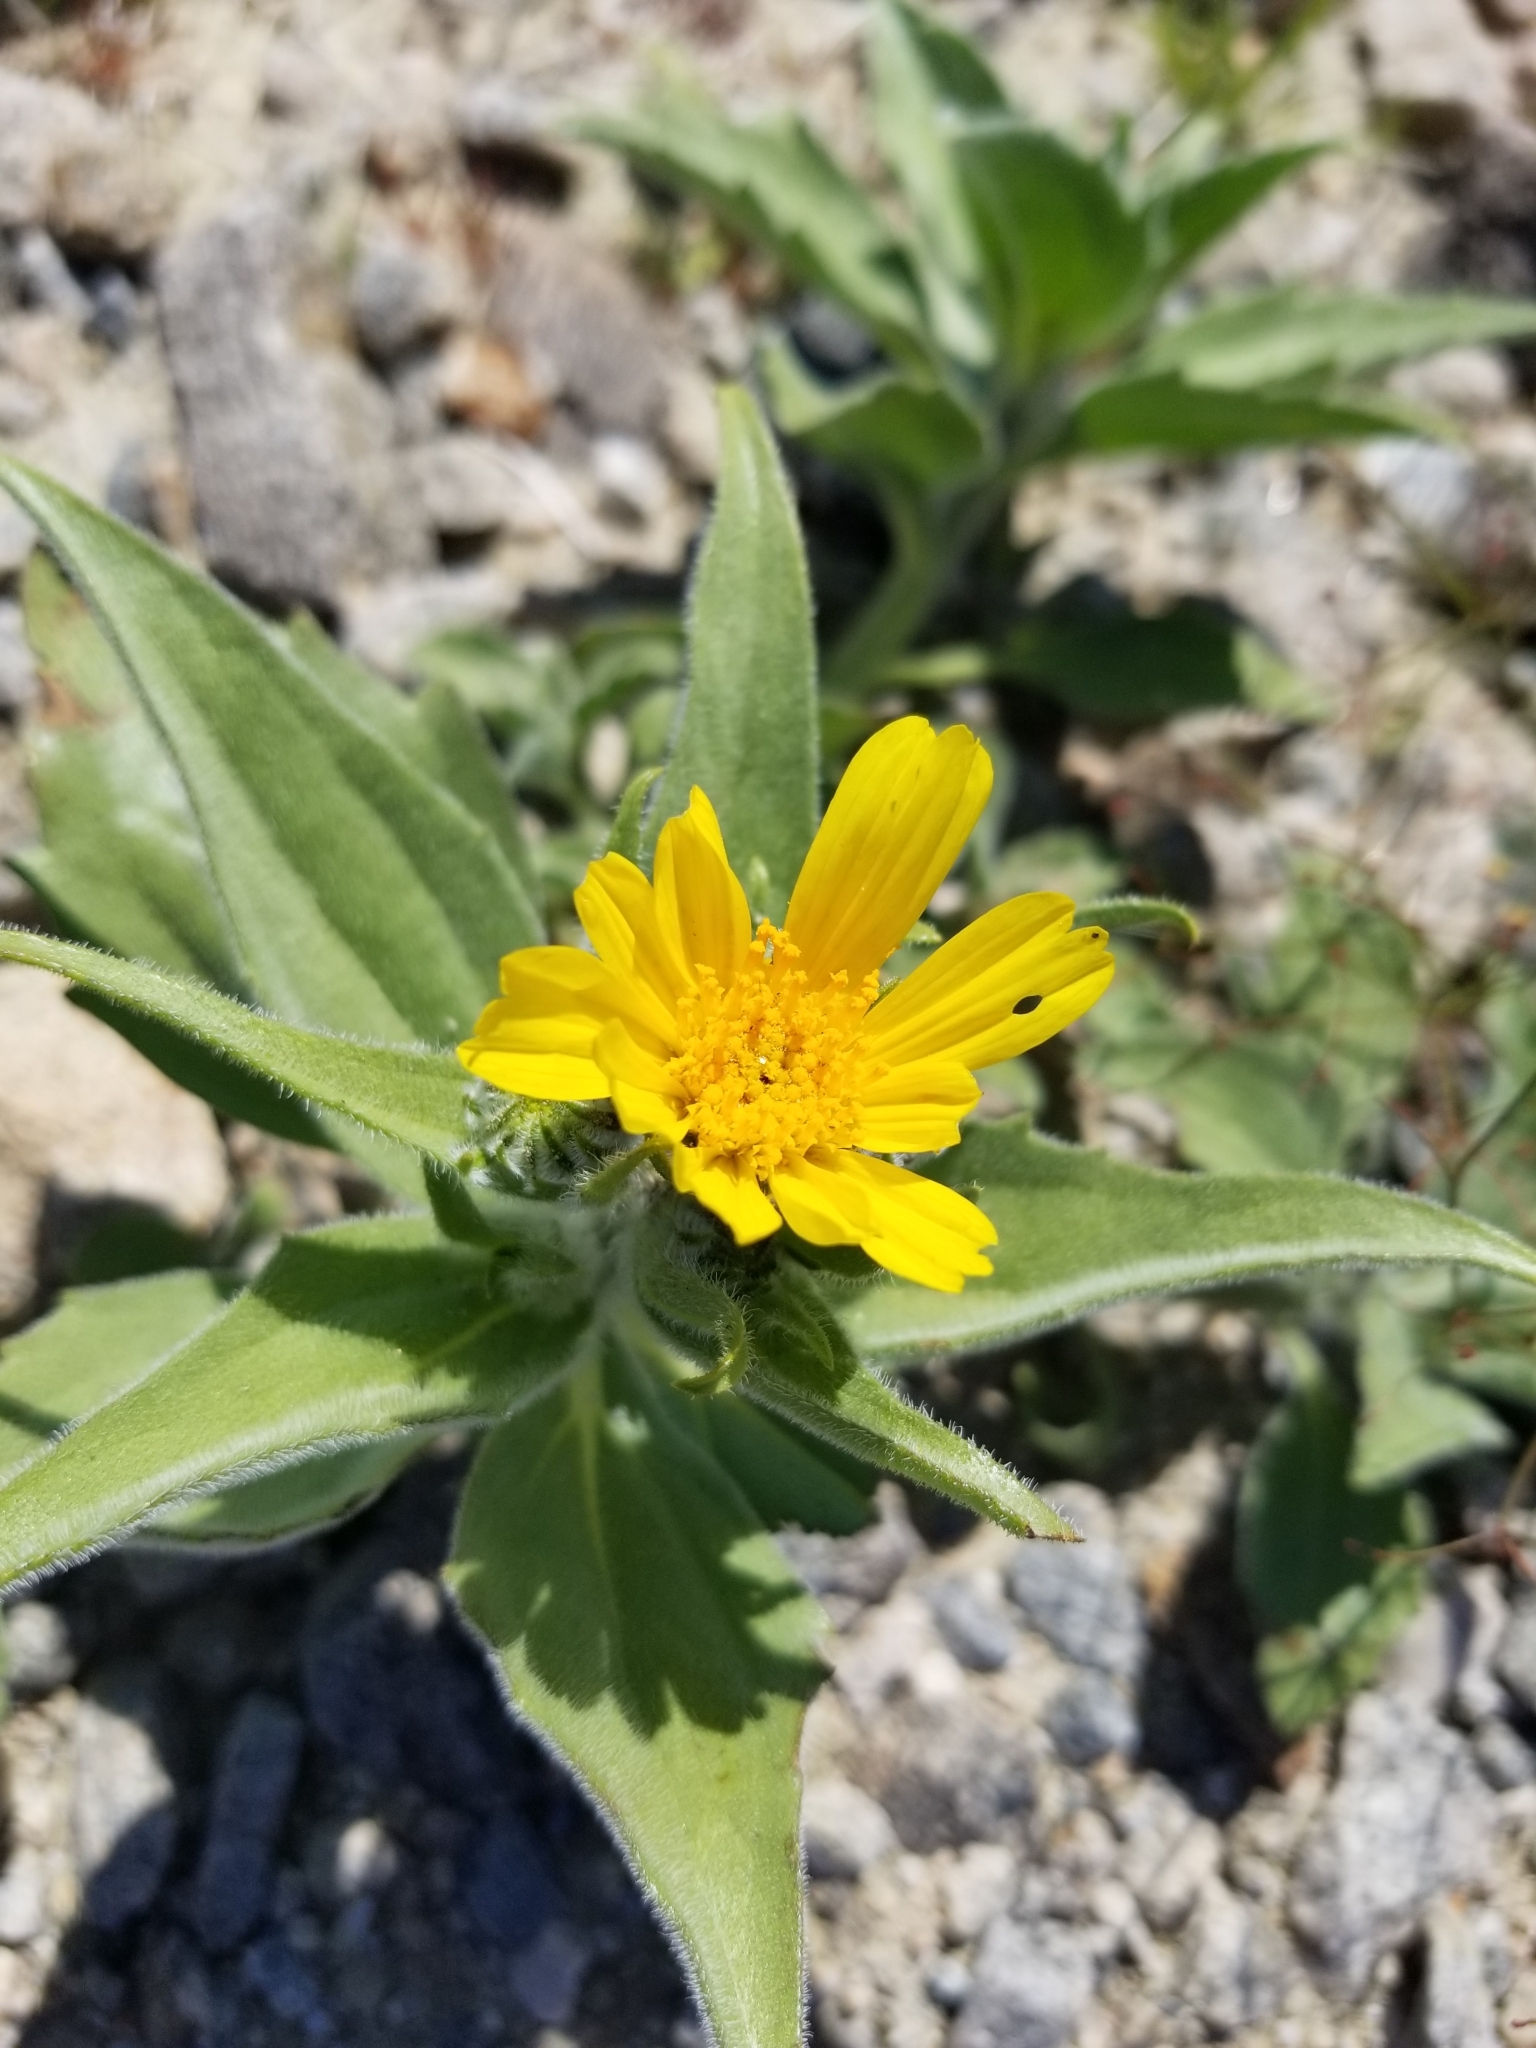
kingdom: Plantae
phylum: Tracheophyta
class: Magnoliopsida
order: Asterales
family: Asteraceae
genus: Geraea
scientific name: Geraea canescens
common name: Desert-gold
